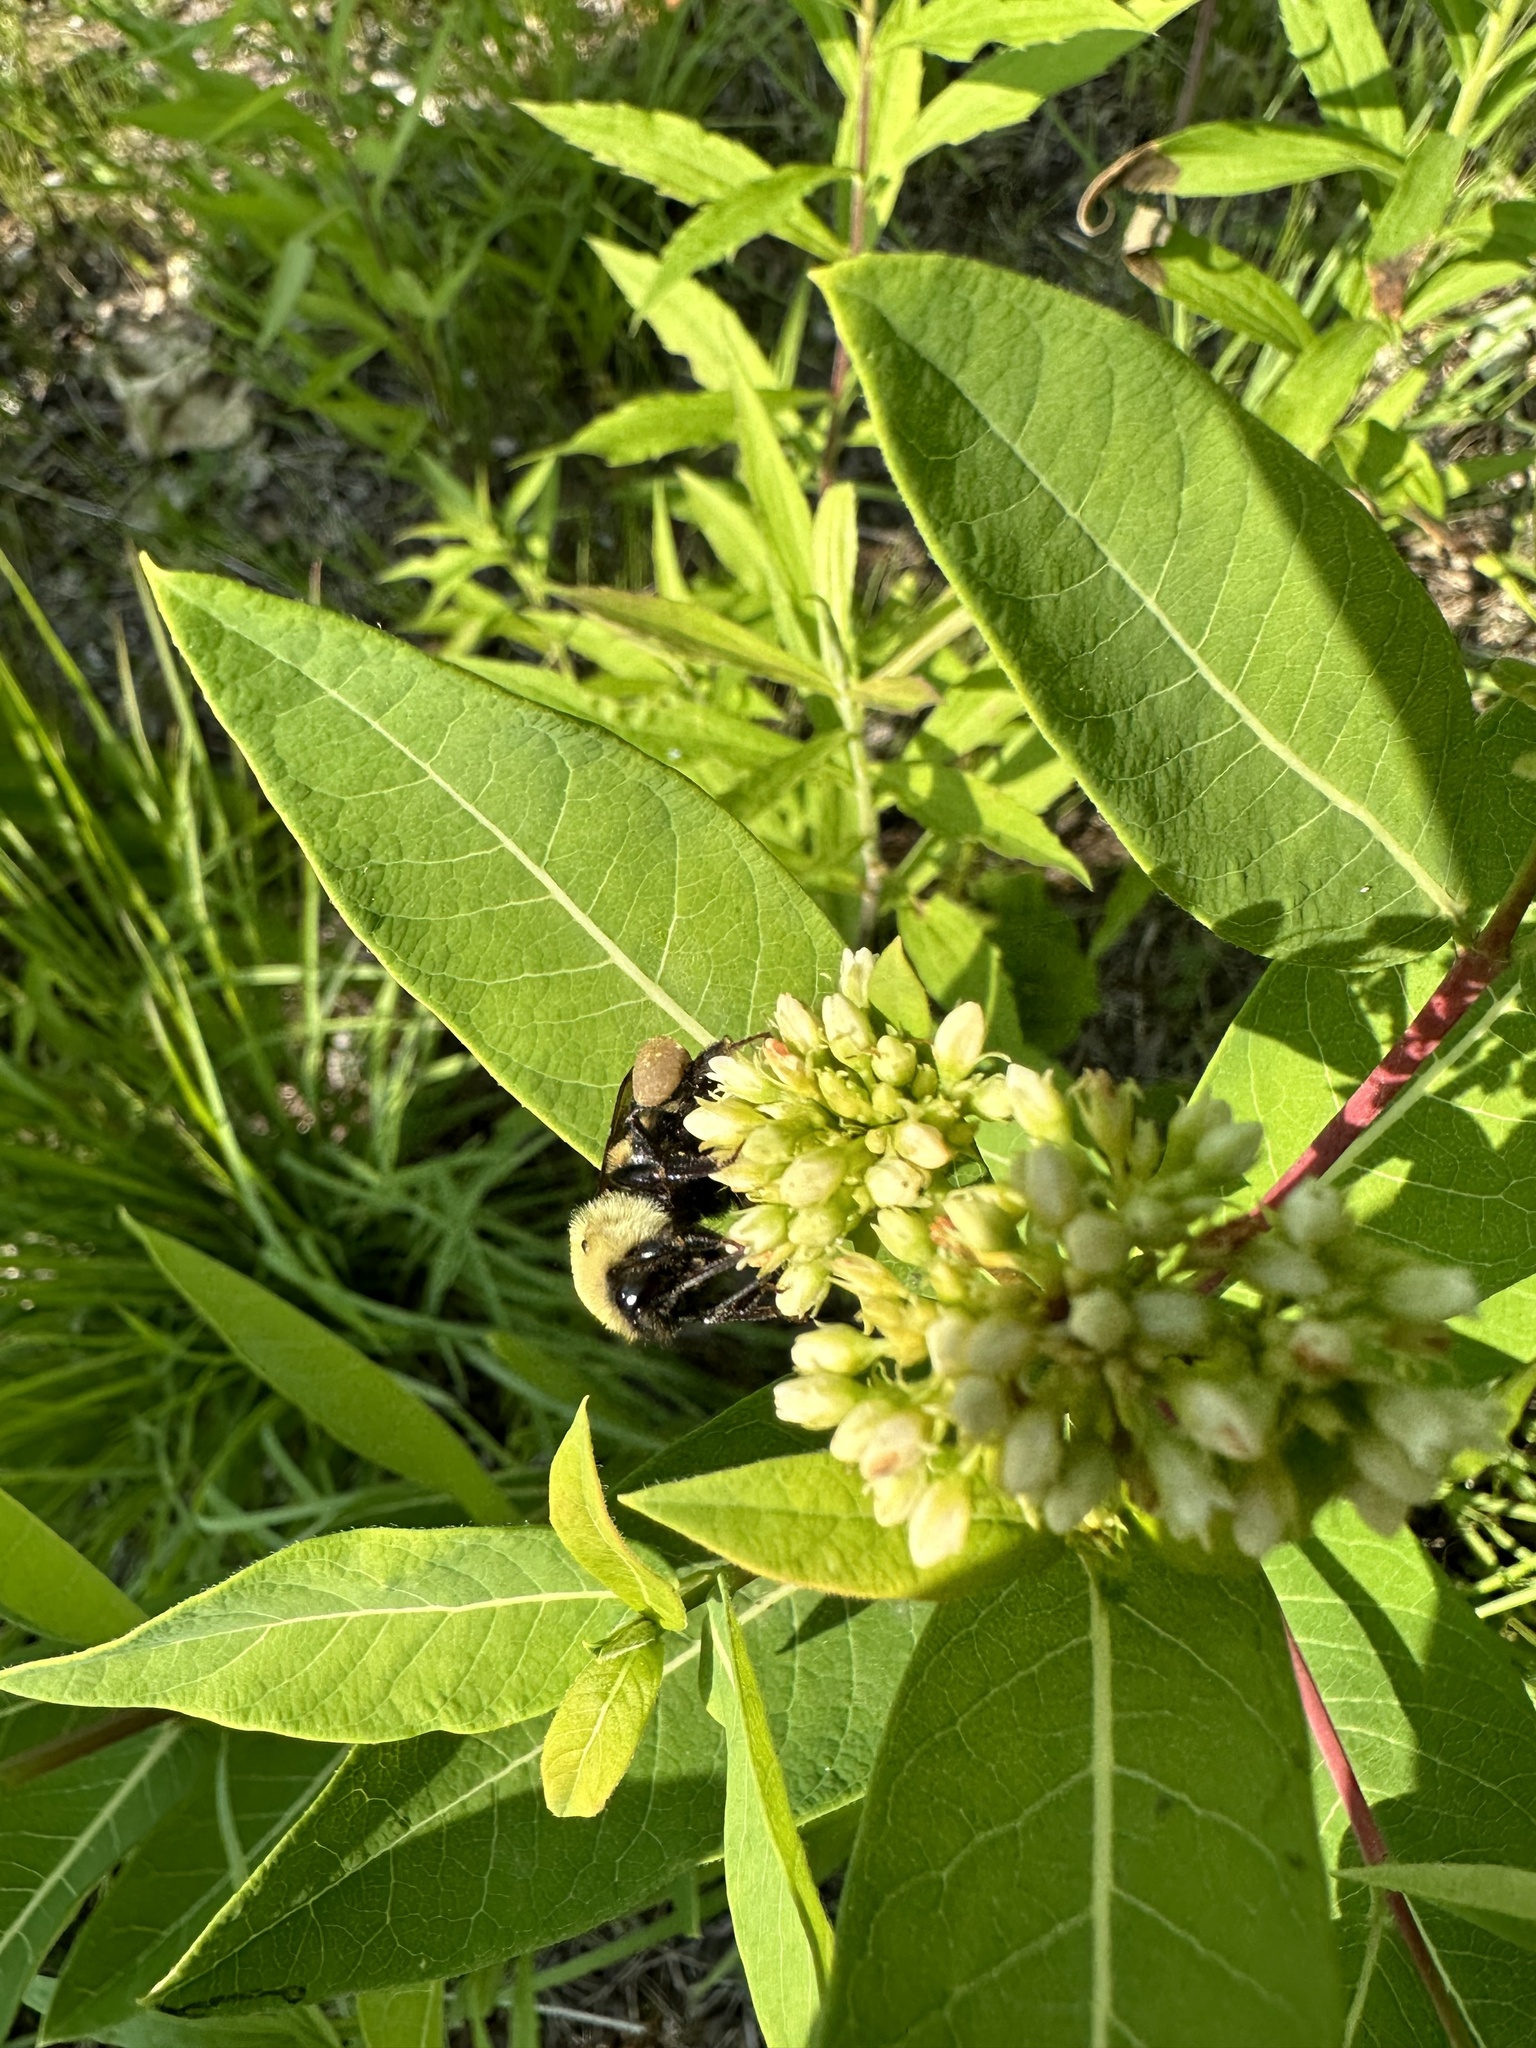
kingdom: Animalia
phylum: Arthropoda
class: Insecta
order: Hymenoptera
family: Apidae
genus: Bombus
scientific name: Bombus griseocollis
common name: Brown-belted bumble bee
